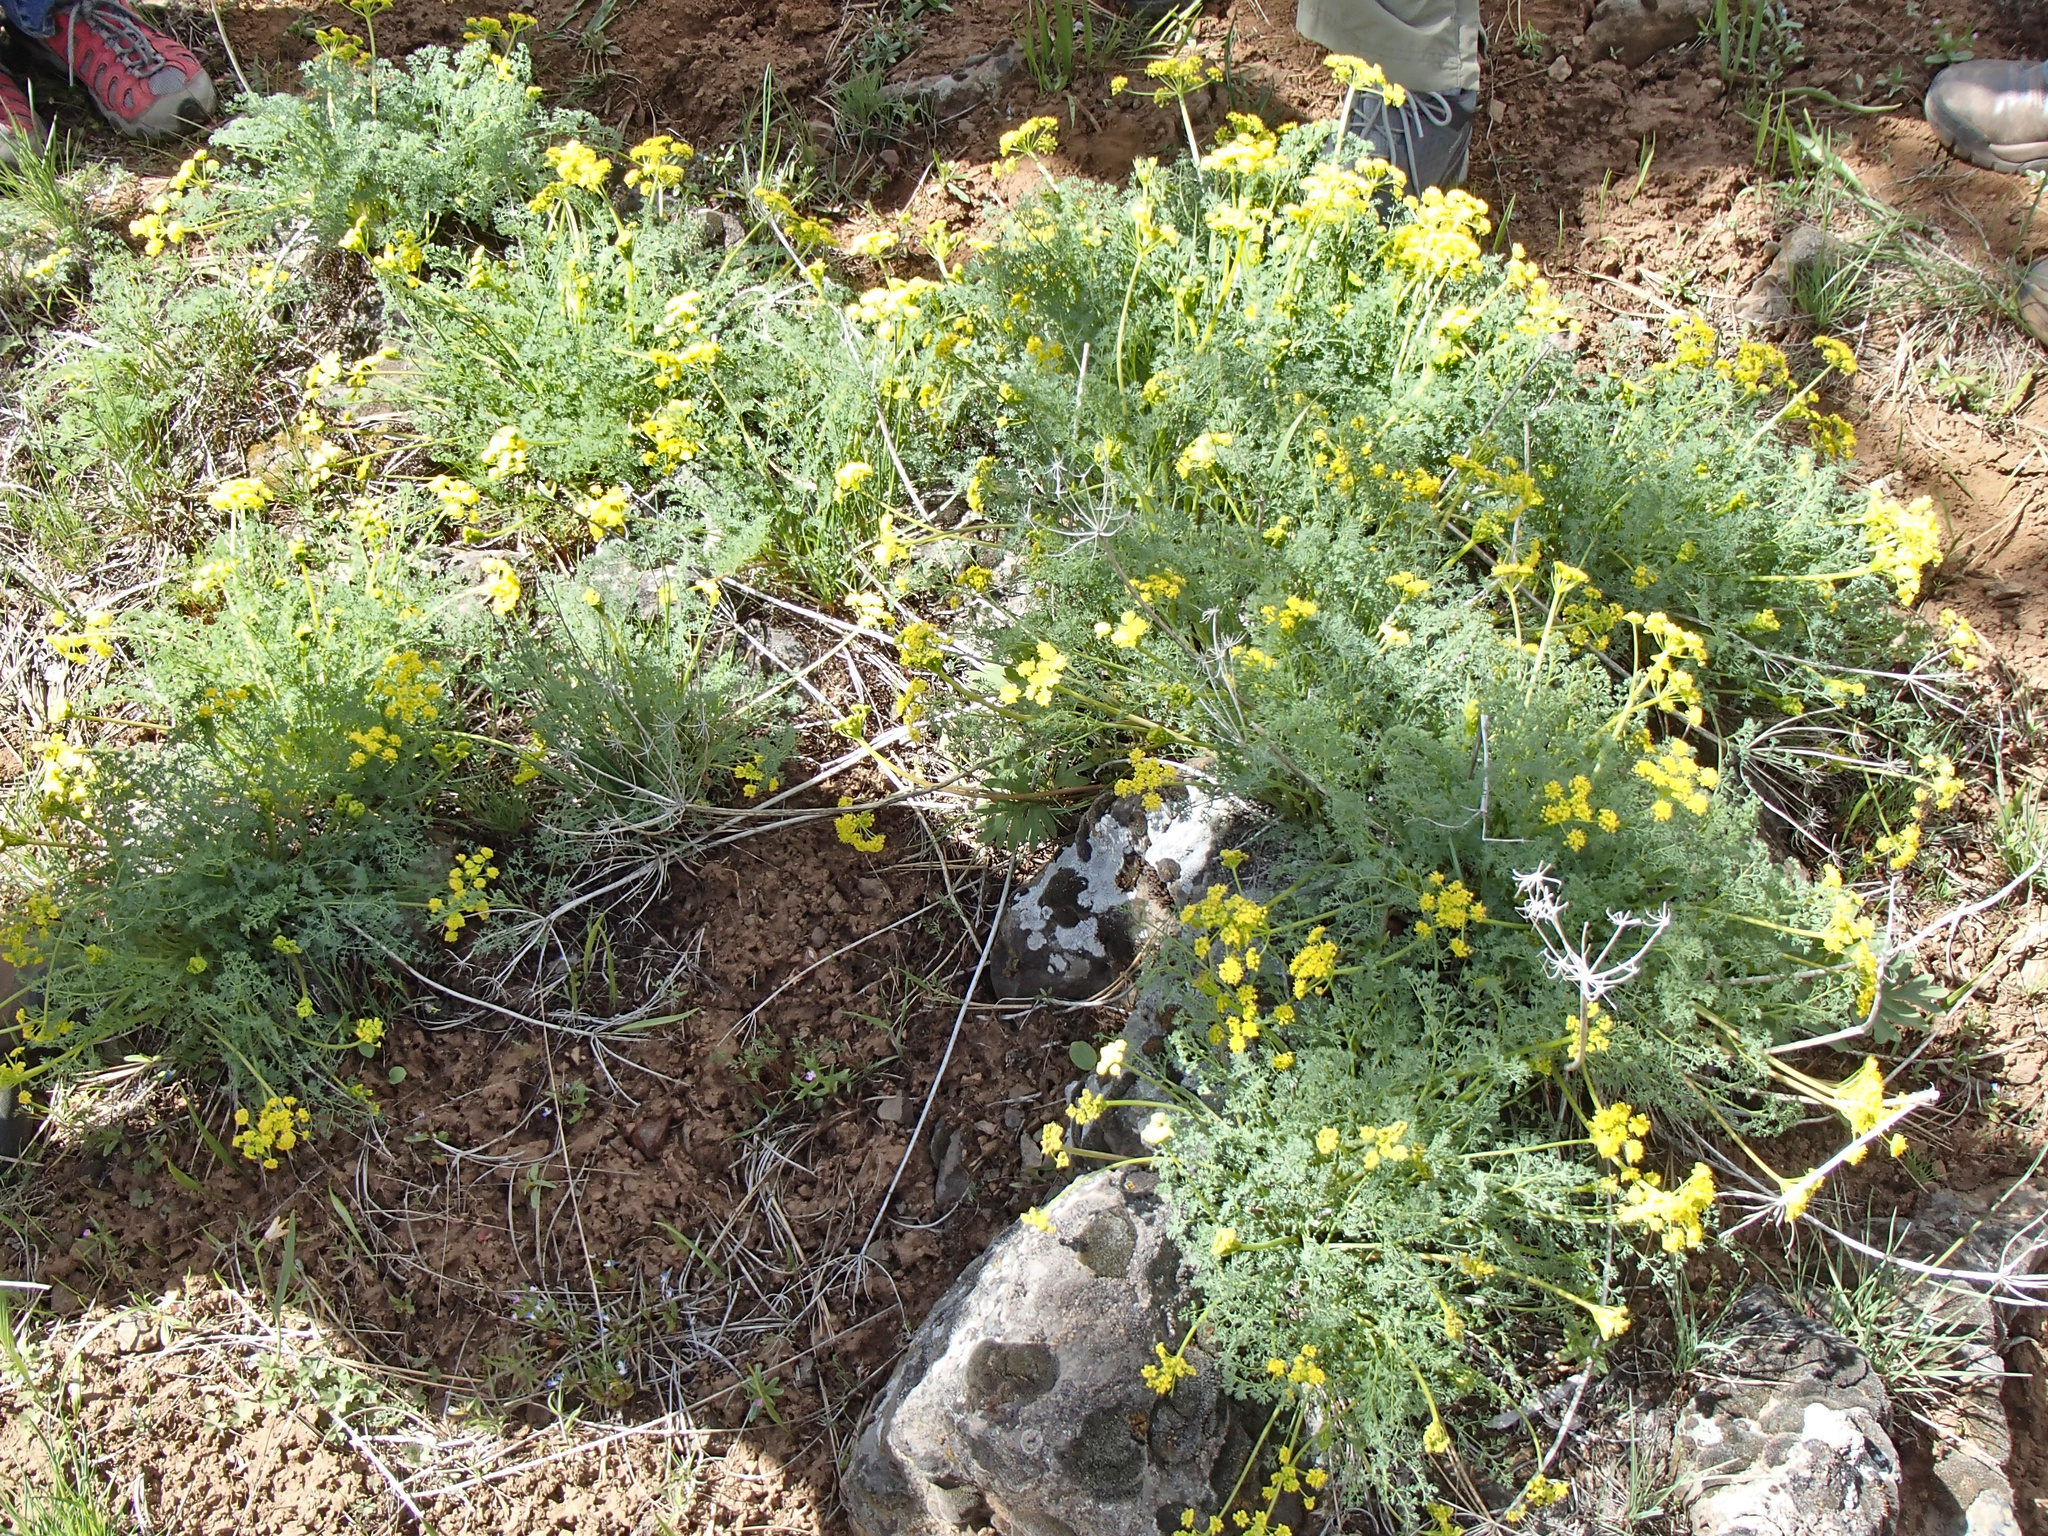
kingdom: Plantae
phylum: Tracheophyta
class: Magnoliopsida
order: Apiales
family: Apiaceae
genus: Lomatium
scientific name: Lomatium papilioniferum
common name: Butterfly lomatium
